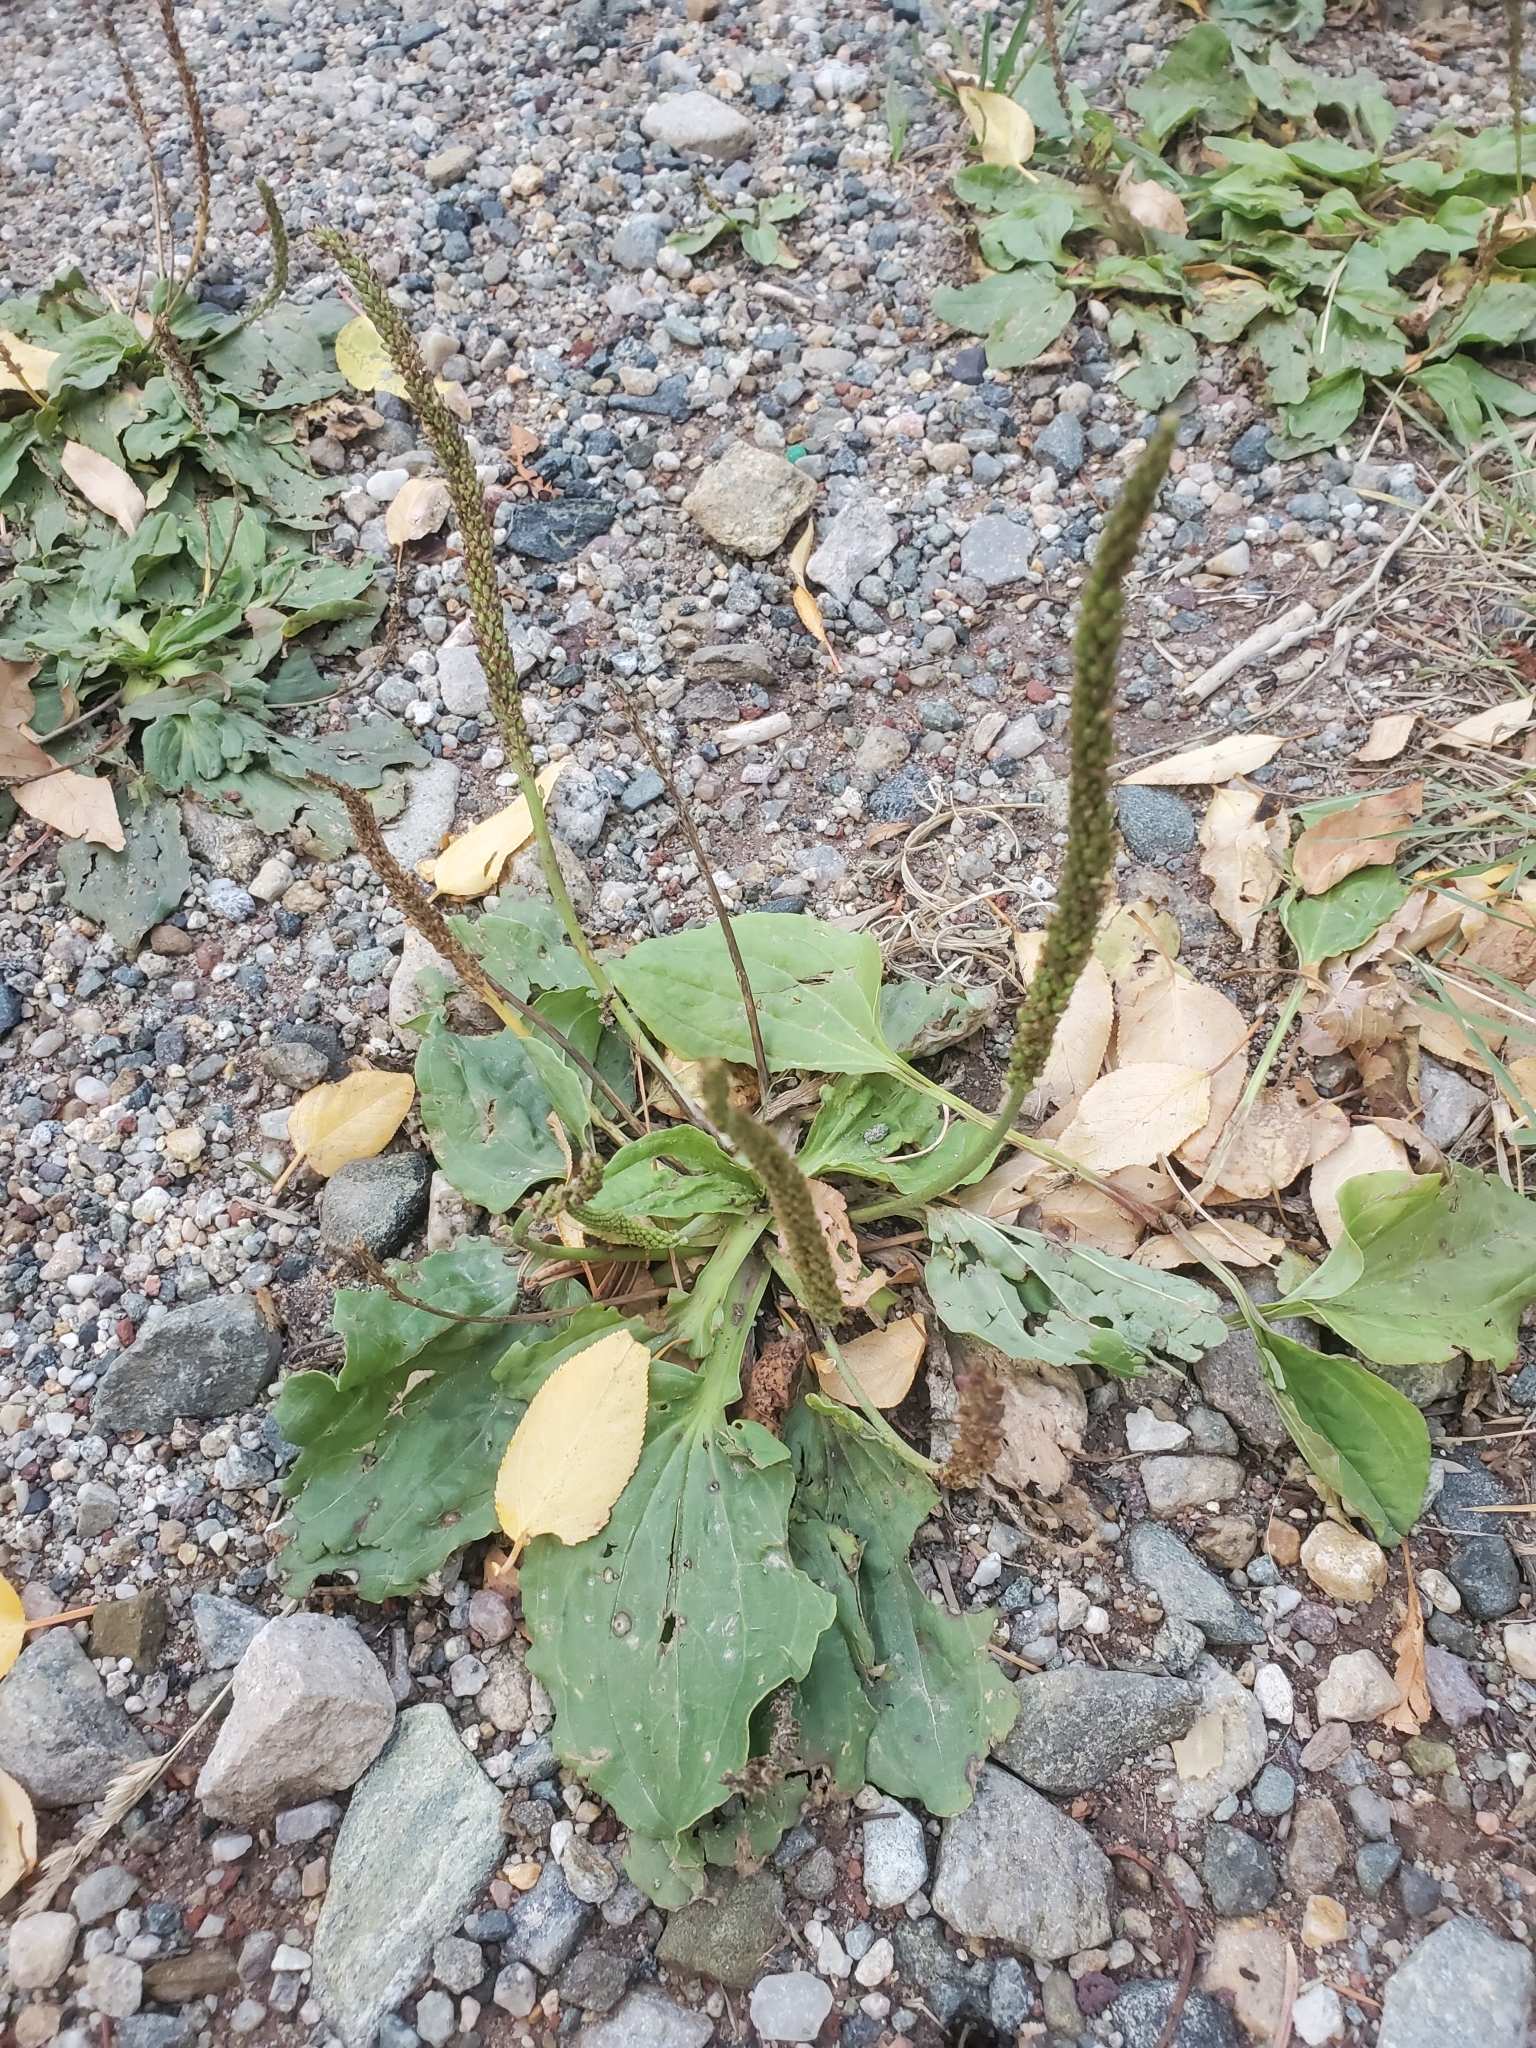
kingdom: Plantae
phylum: Tracheophyta
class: Magnoliopsida
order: Lamiales
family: Plantaginaceae
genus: Plantago
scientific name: Plantago major
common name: Common plantain
